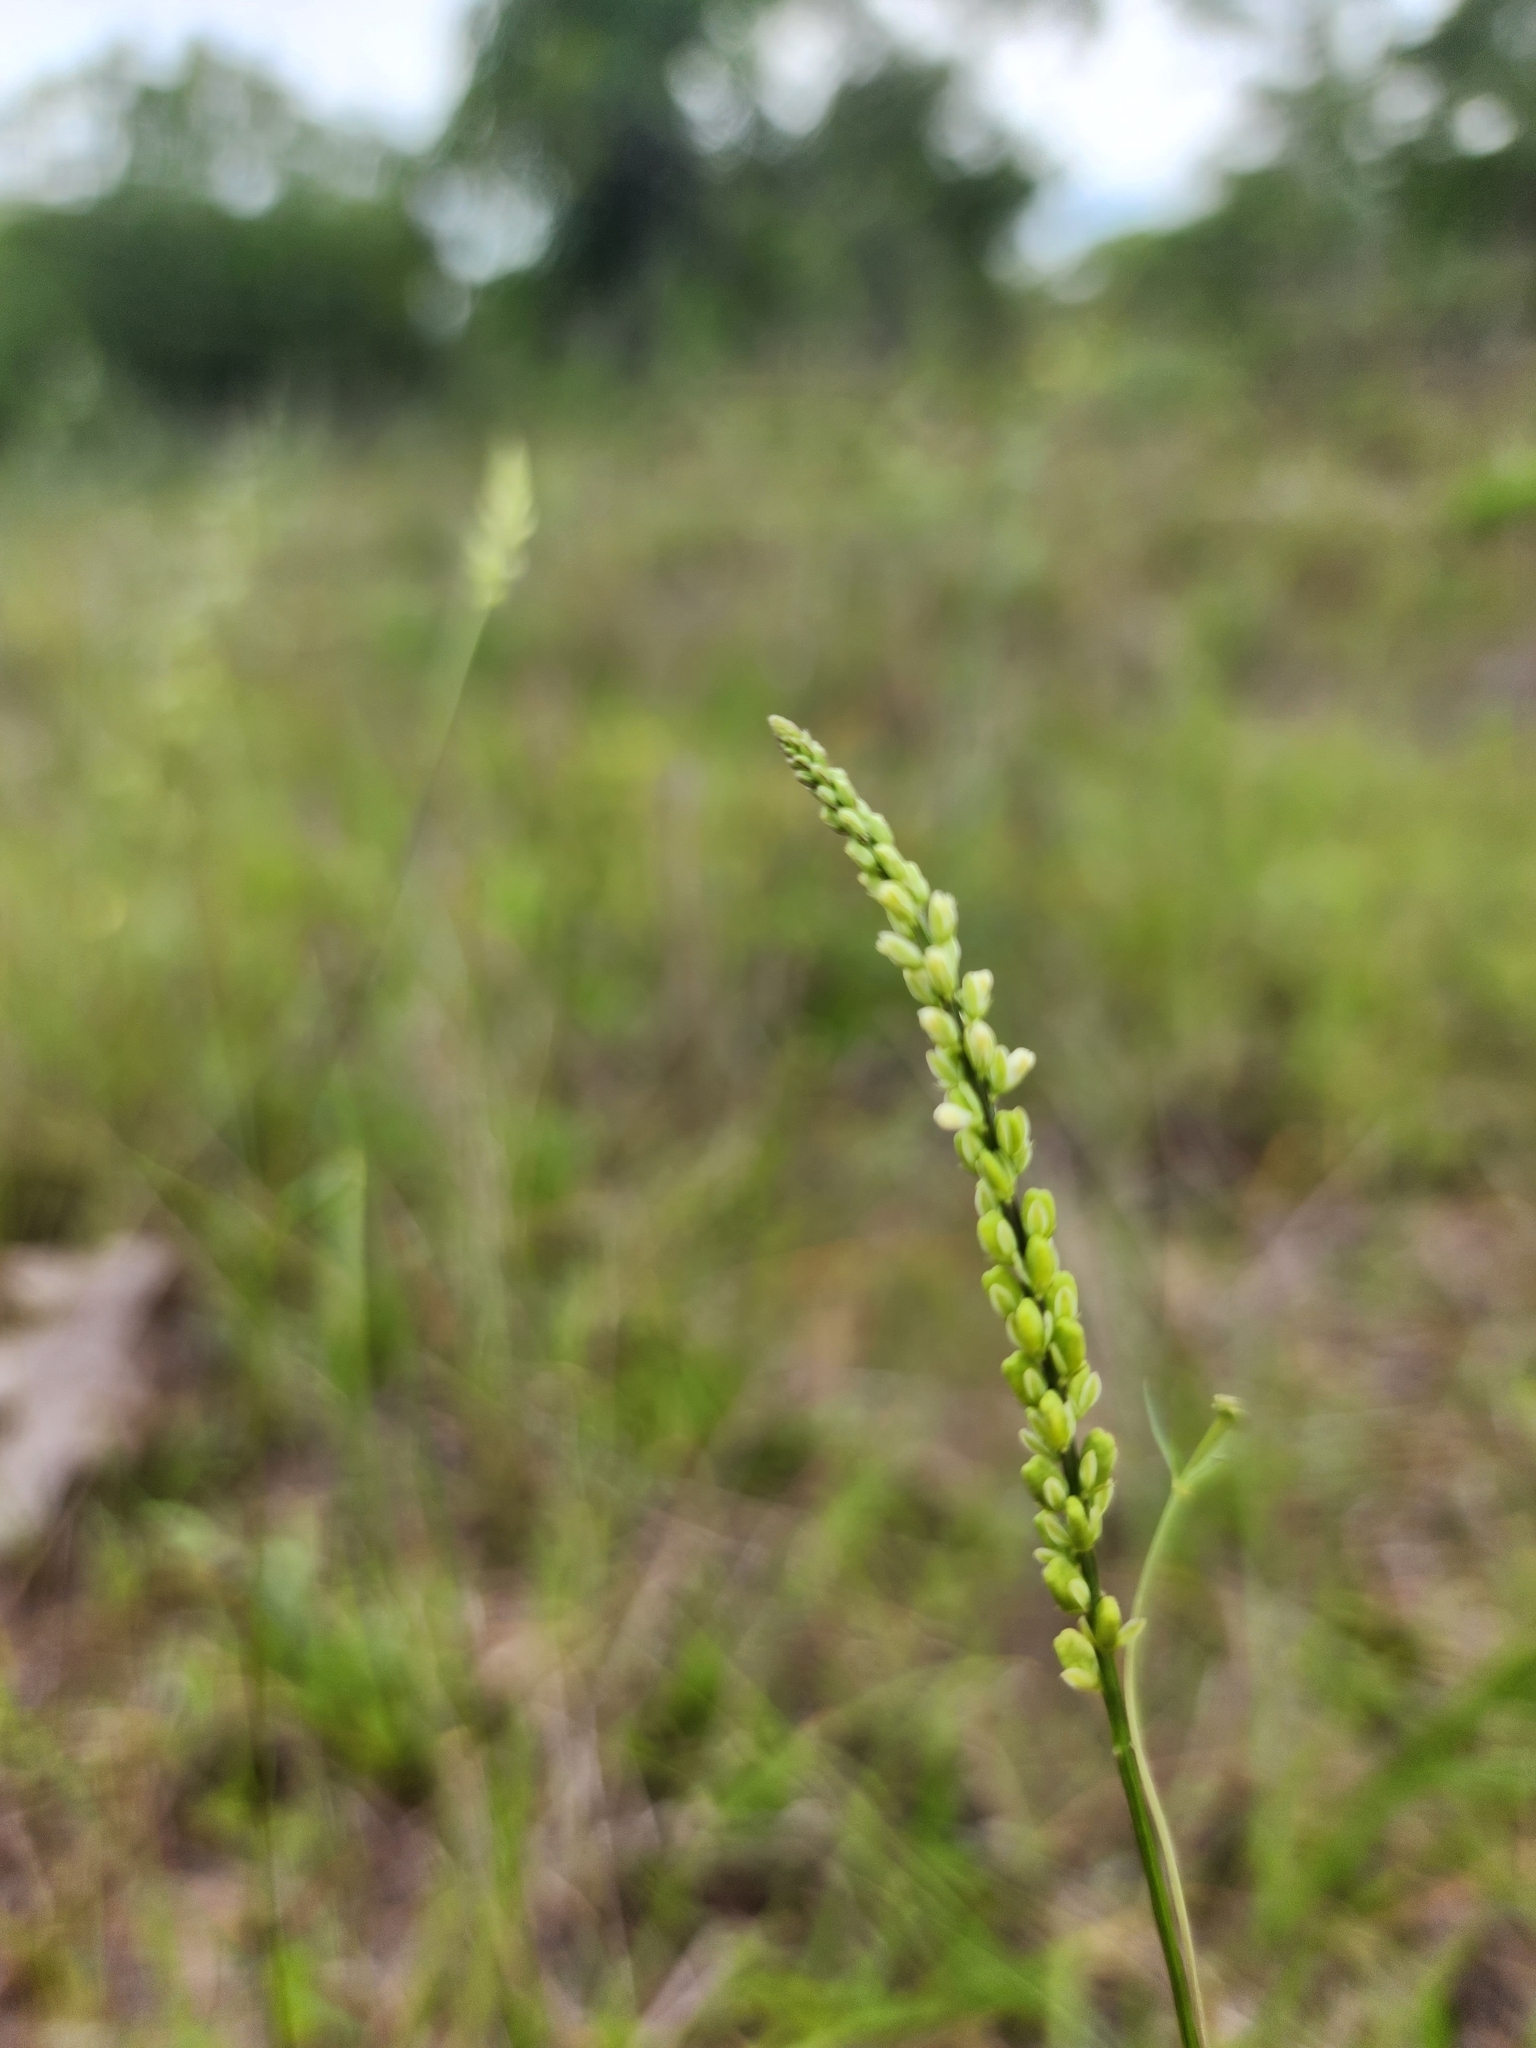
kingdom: Plantae
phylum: Tracheophyta
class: Magnoliopsida
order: Fabales
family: Polygalaceae
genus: Polygala
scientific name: Polygala leptostachys
